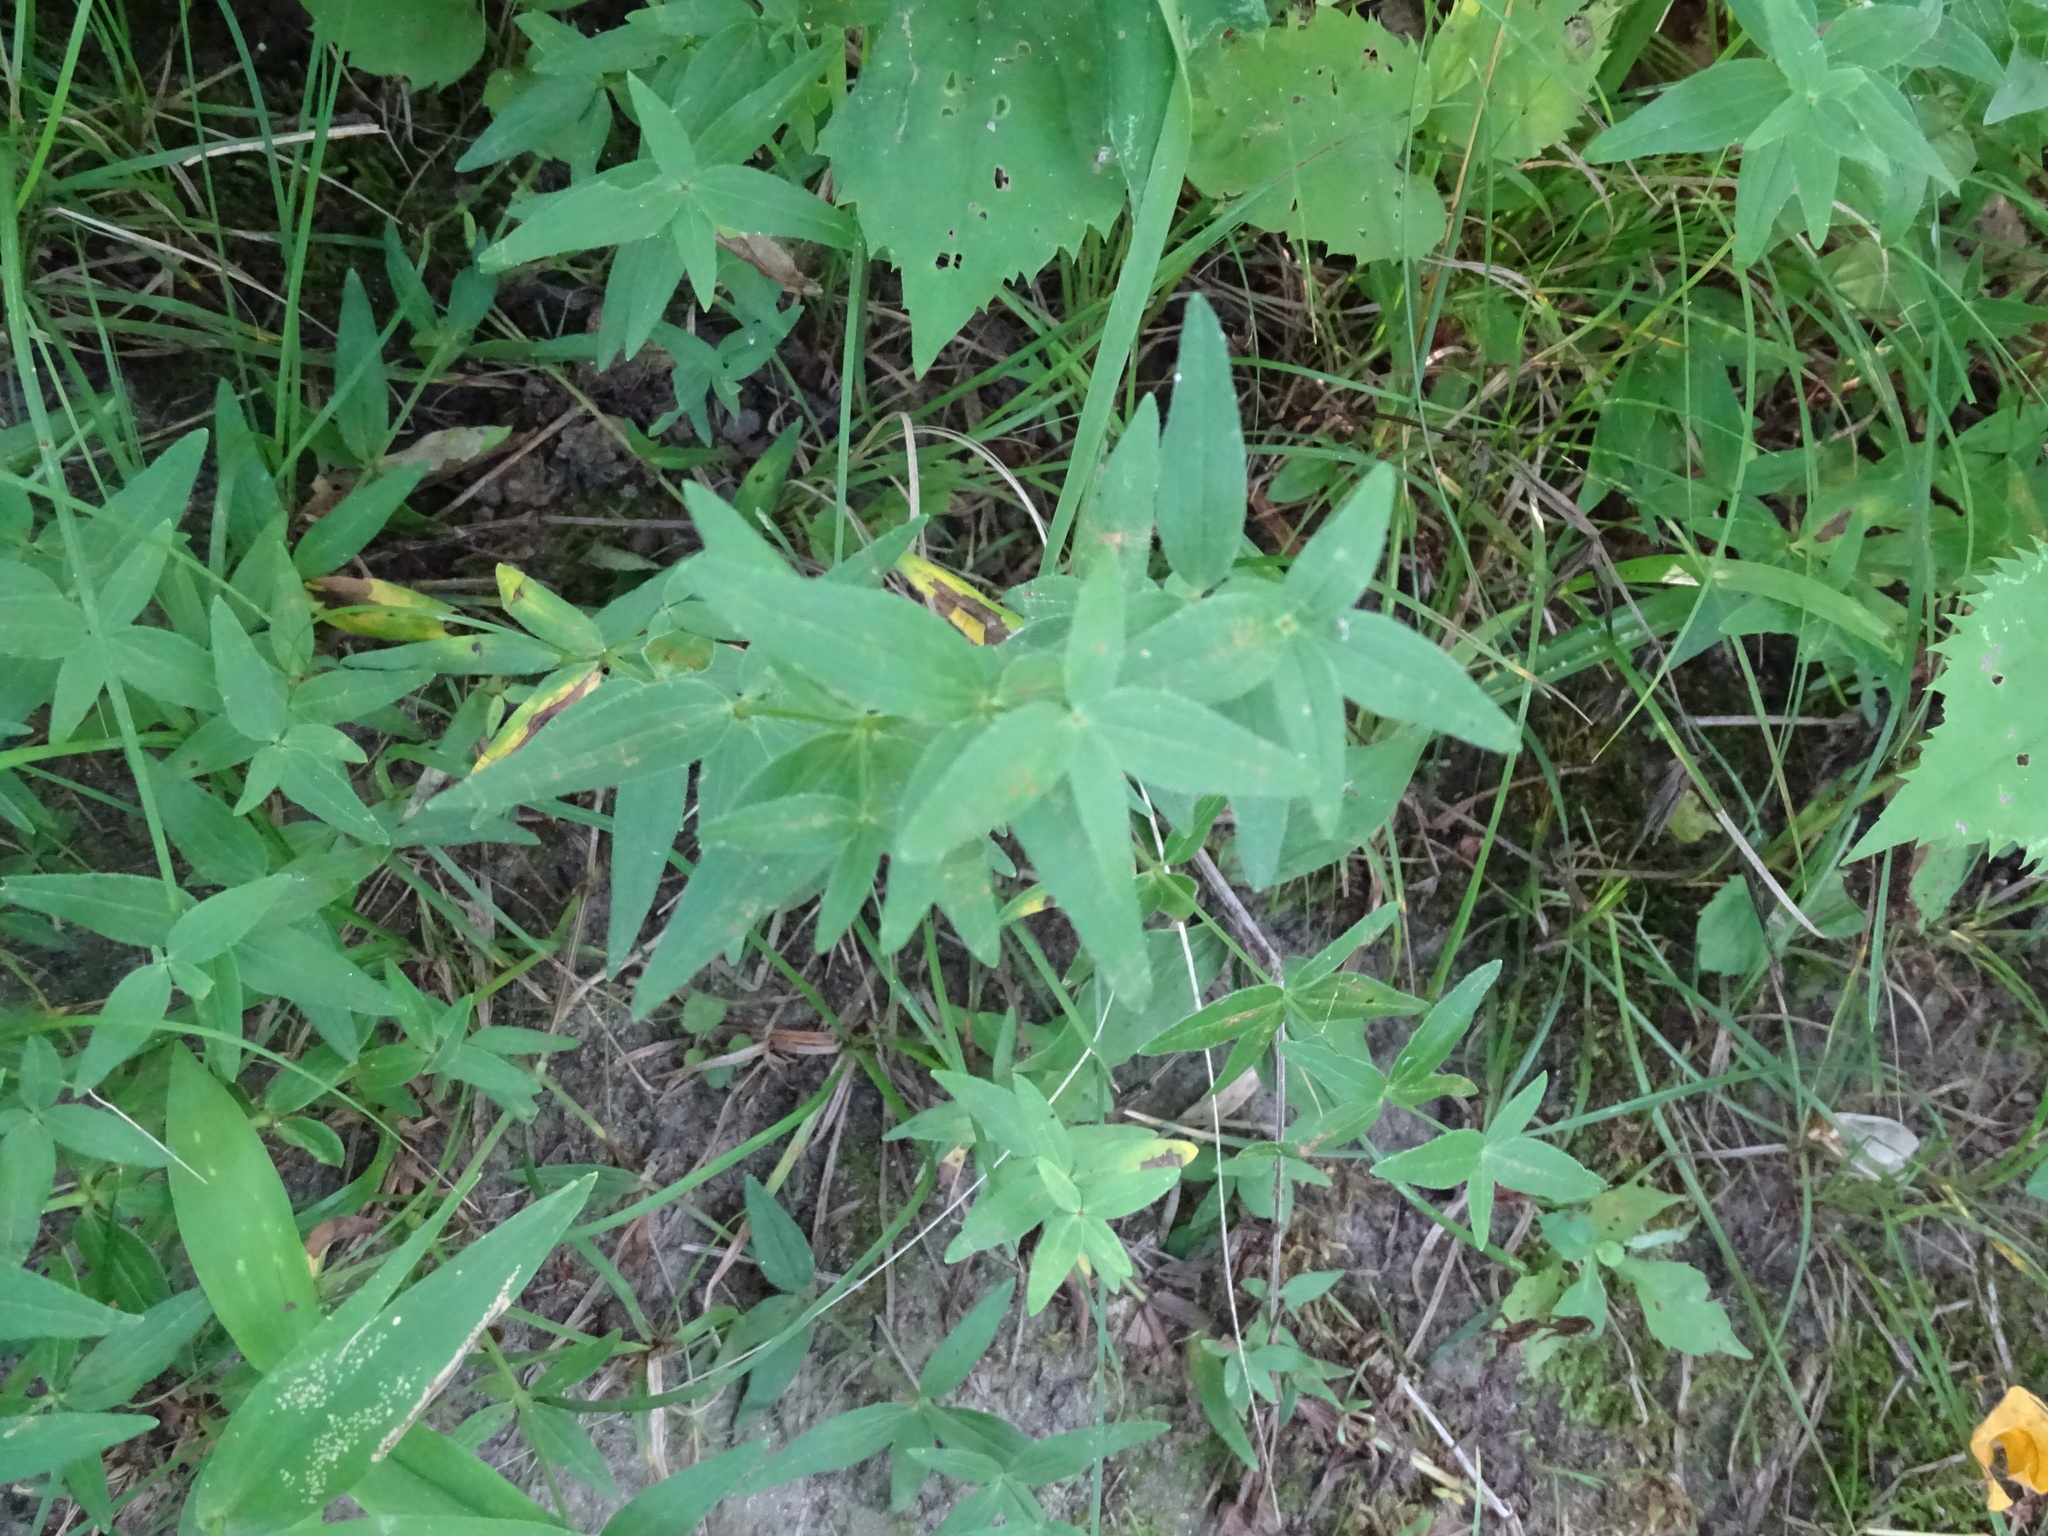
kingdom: Plantae
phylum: Tracheophyta
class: Magnoliopsida
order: Gentianales
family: Rubiaceae
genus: Galium
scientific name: Galium boreale
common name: Northern bedstraw
